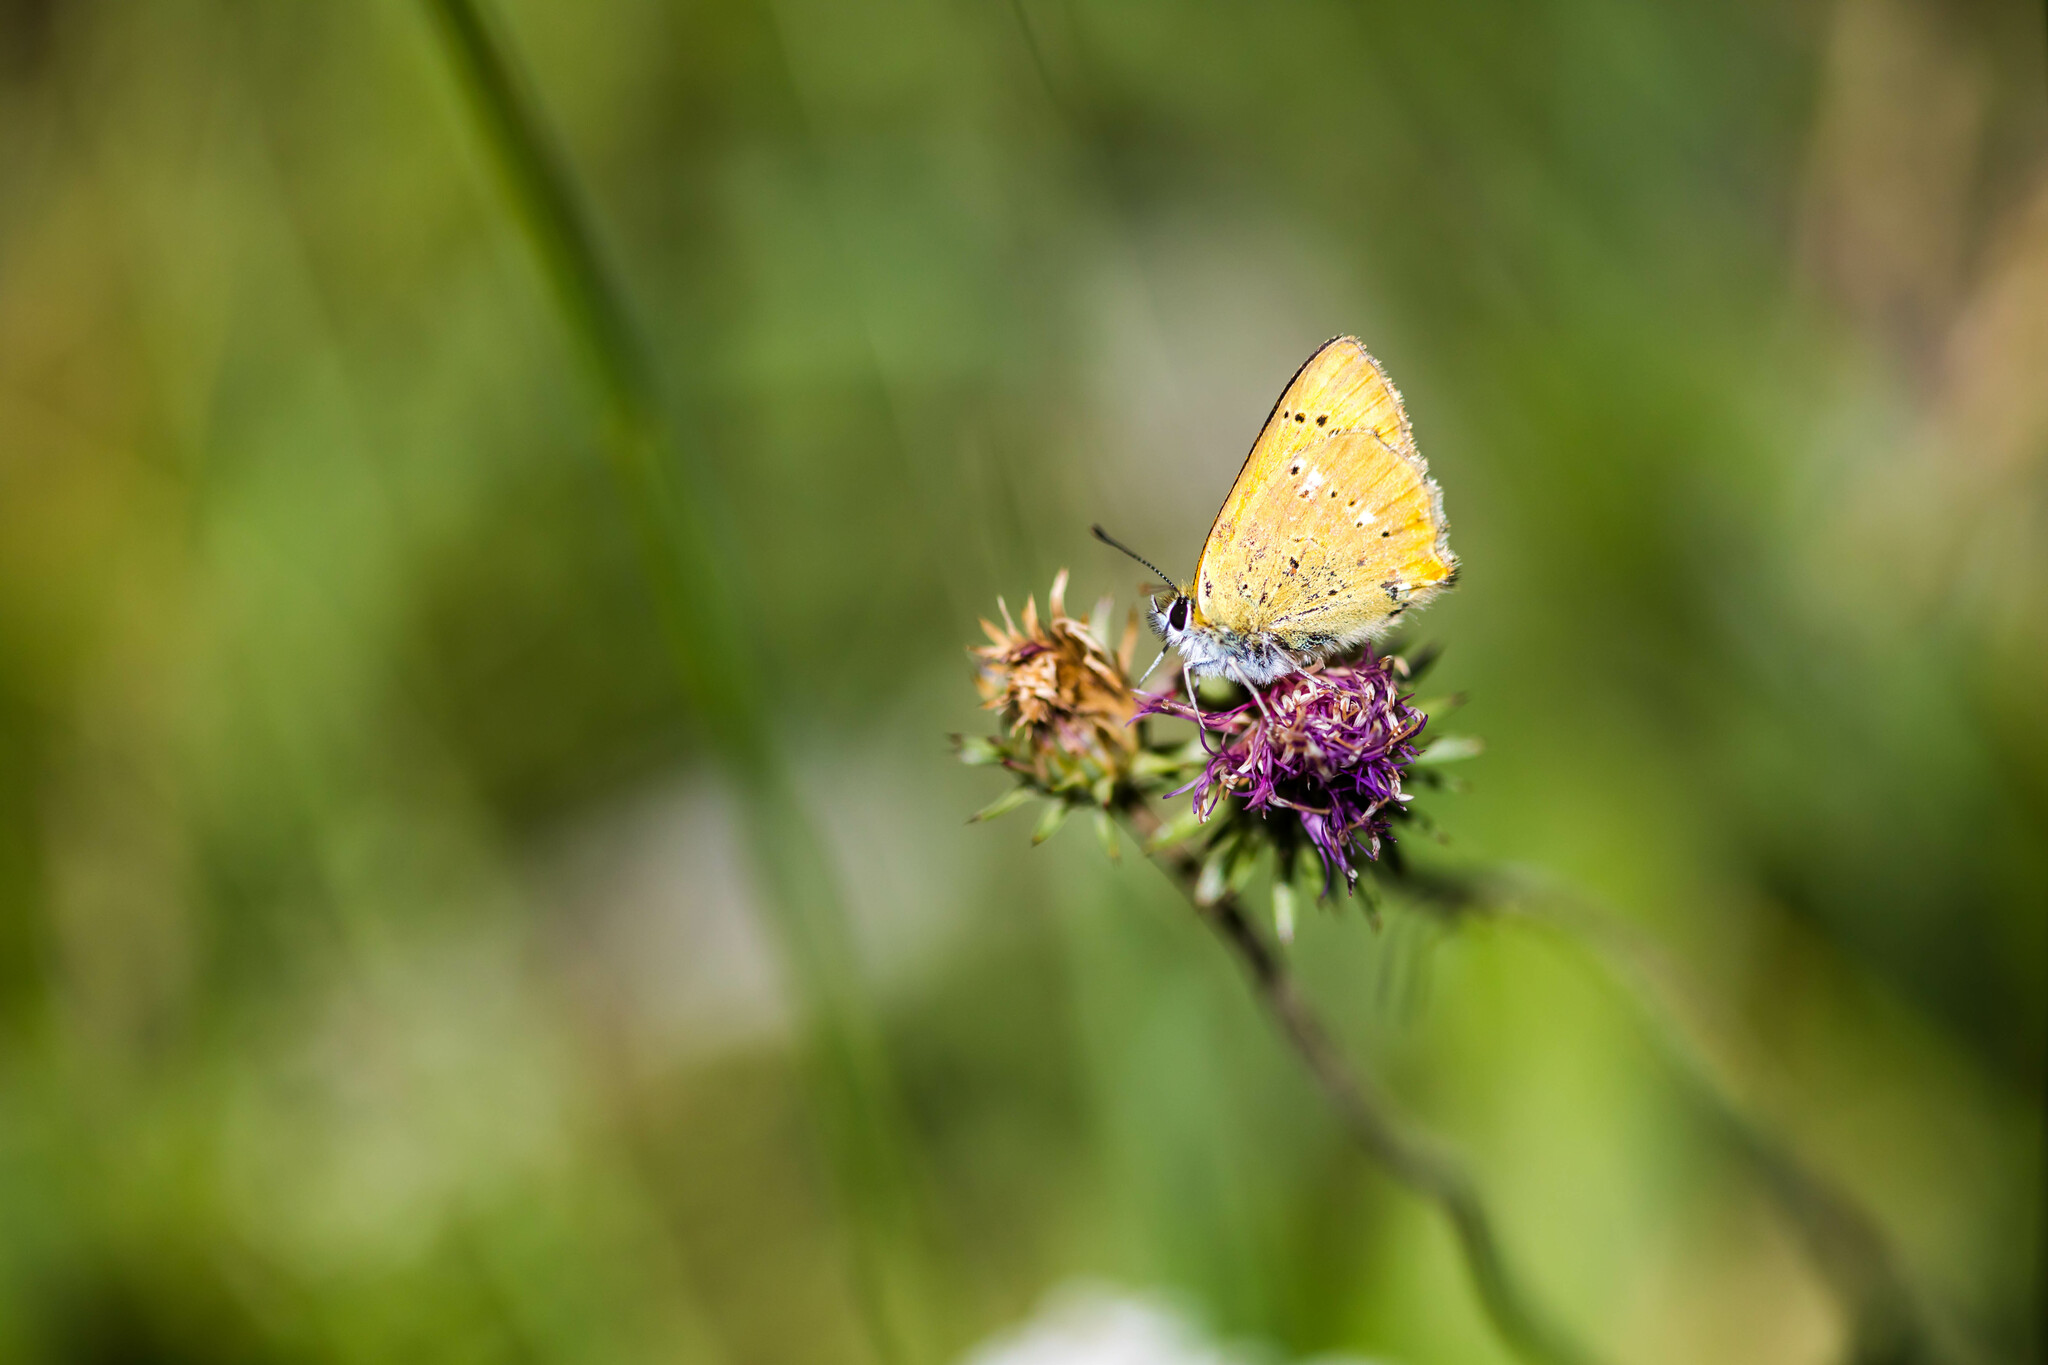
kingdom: Animalia
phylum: Arthropoda
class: Insecta
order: Lepidoptera
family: Lycaenidae
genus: Lycaena
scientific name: Lycaena virgaureae
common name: Scarce copper
